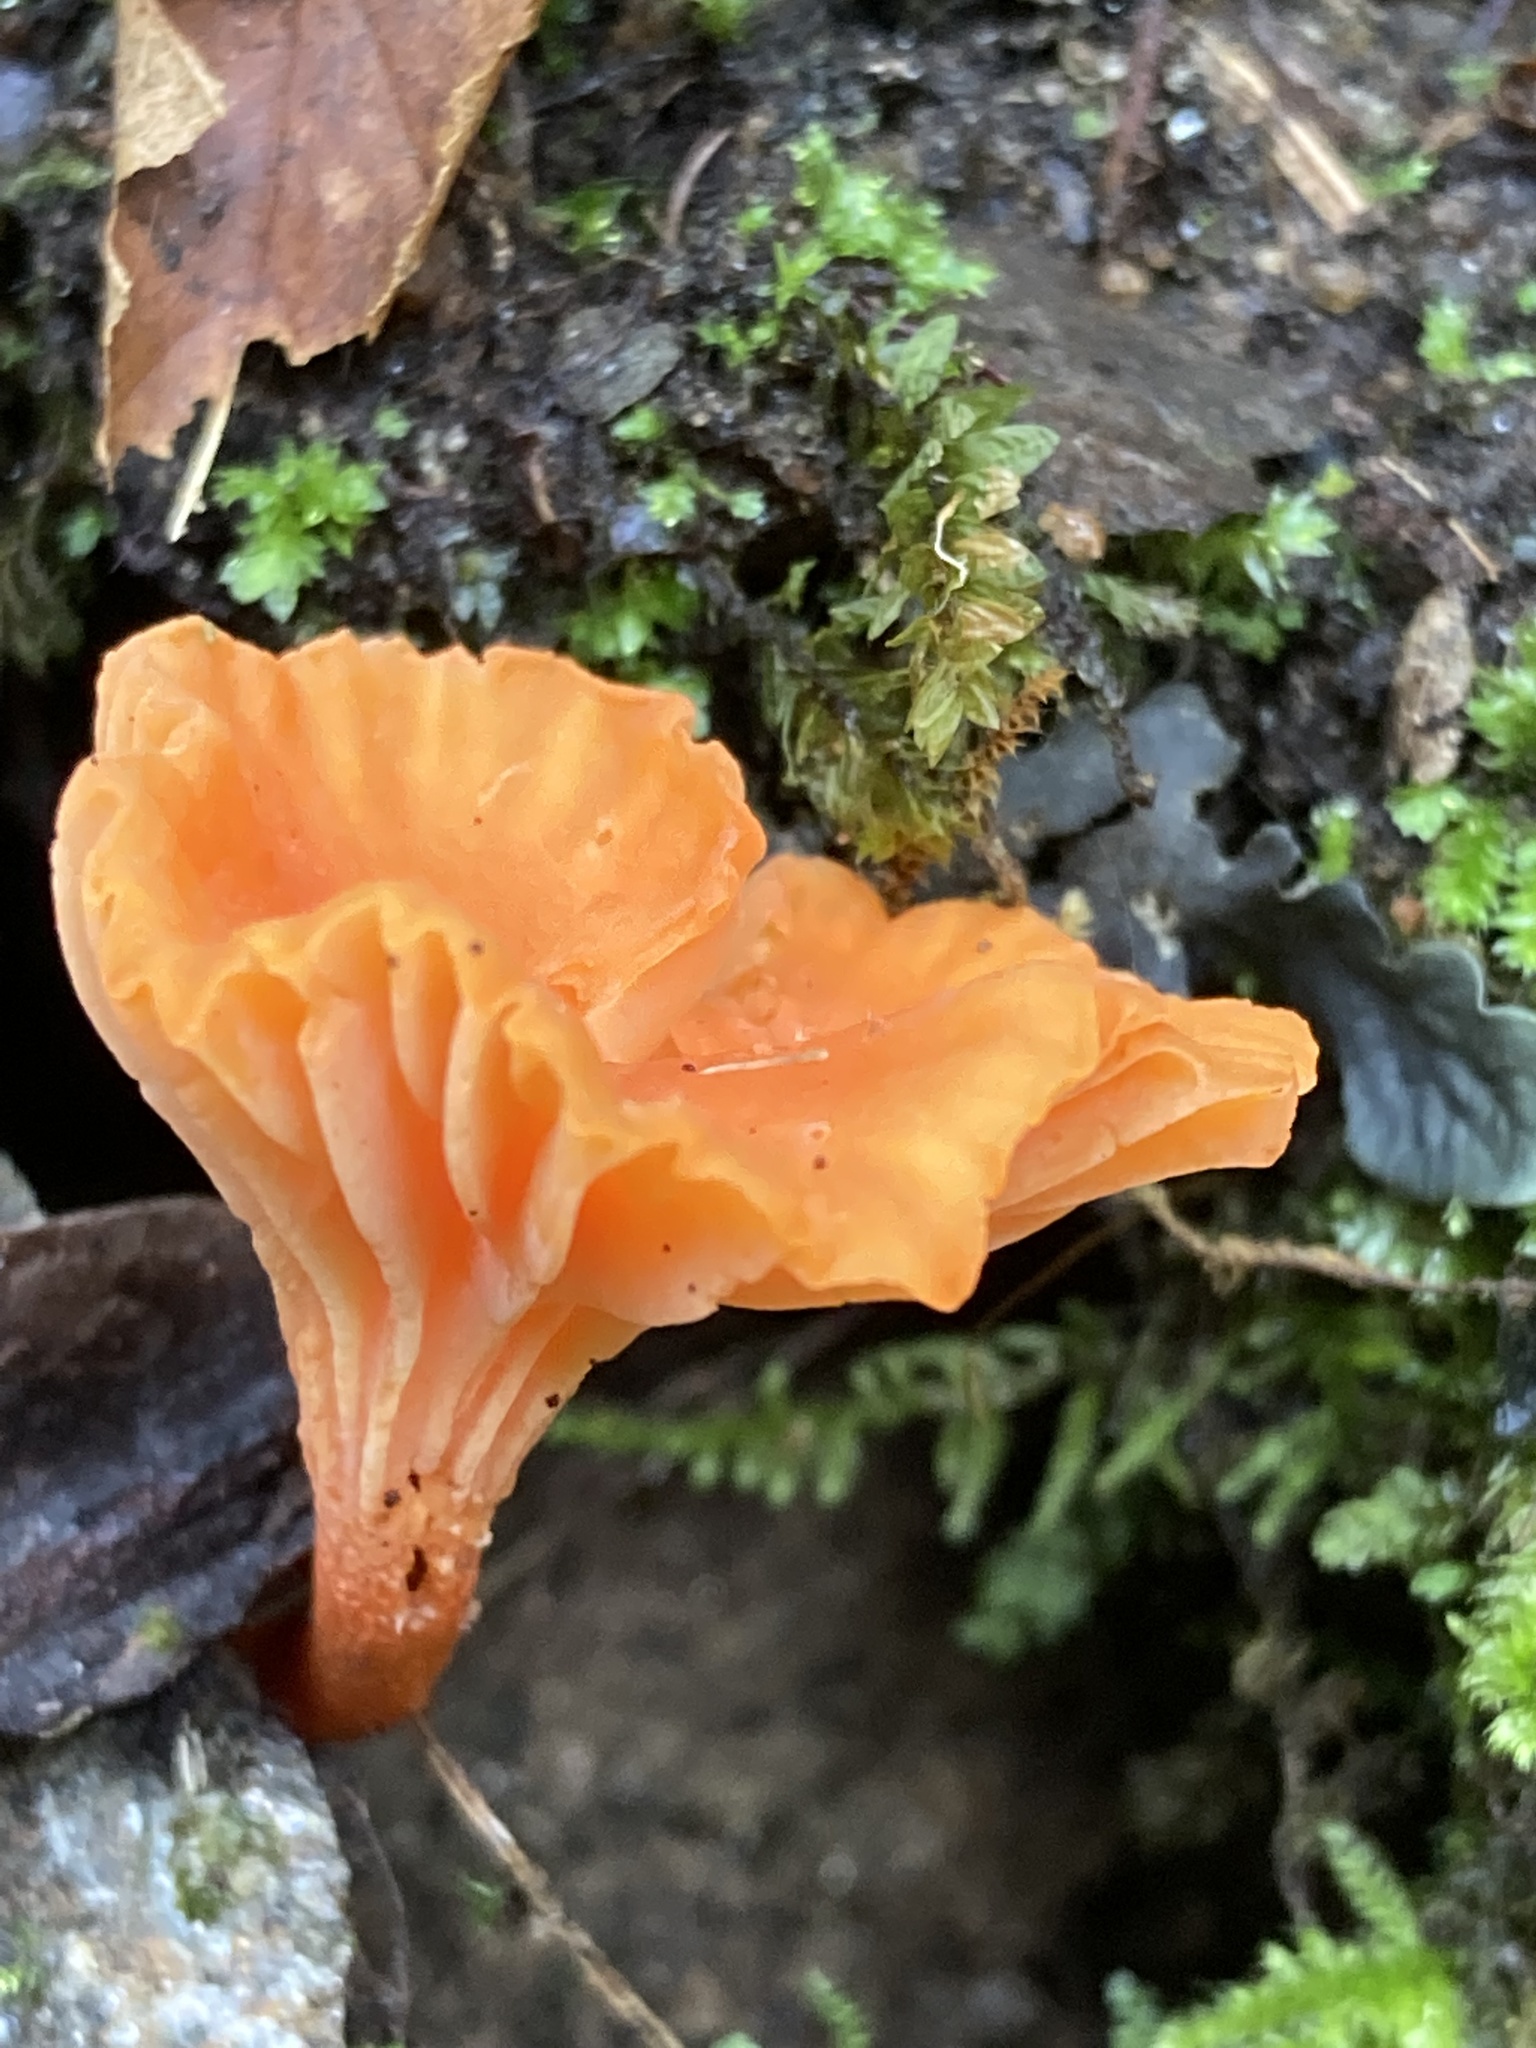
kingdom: Fungi
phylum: Basidiomycota
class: Agaricomycetes
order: Cantharellales
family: Hydnaceae
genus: Cantharellus
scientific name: Cantharellus cinnabarinus
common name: Cinnabar chanterelle
